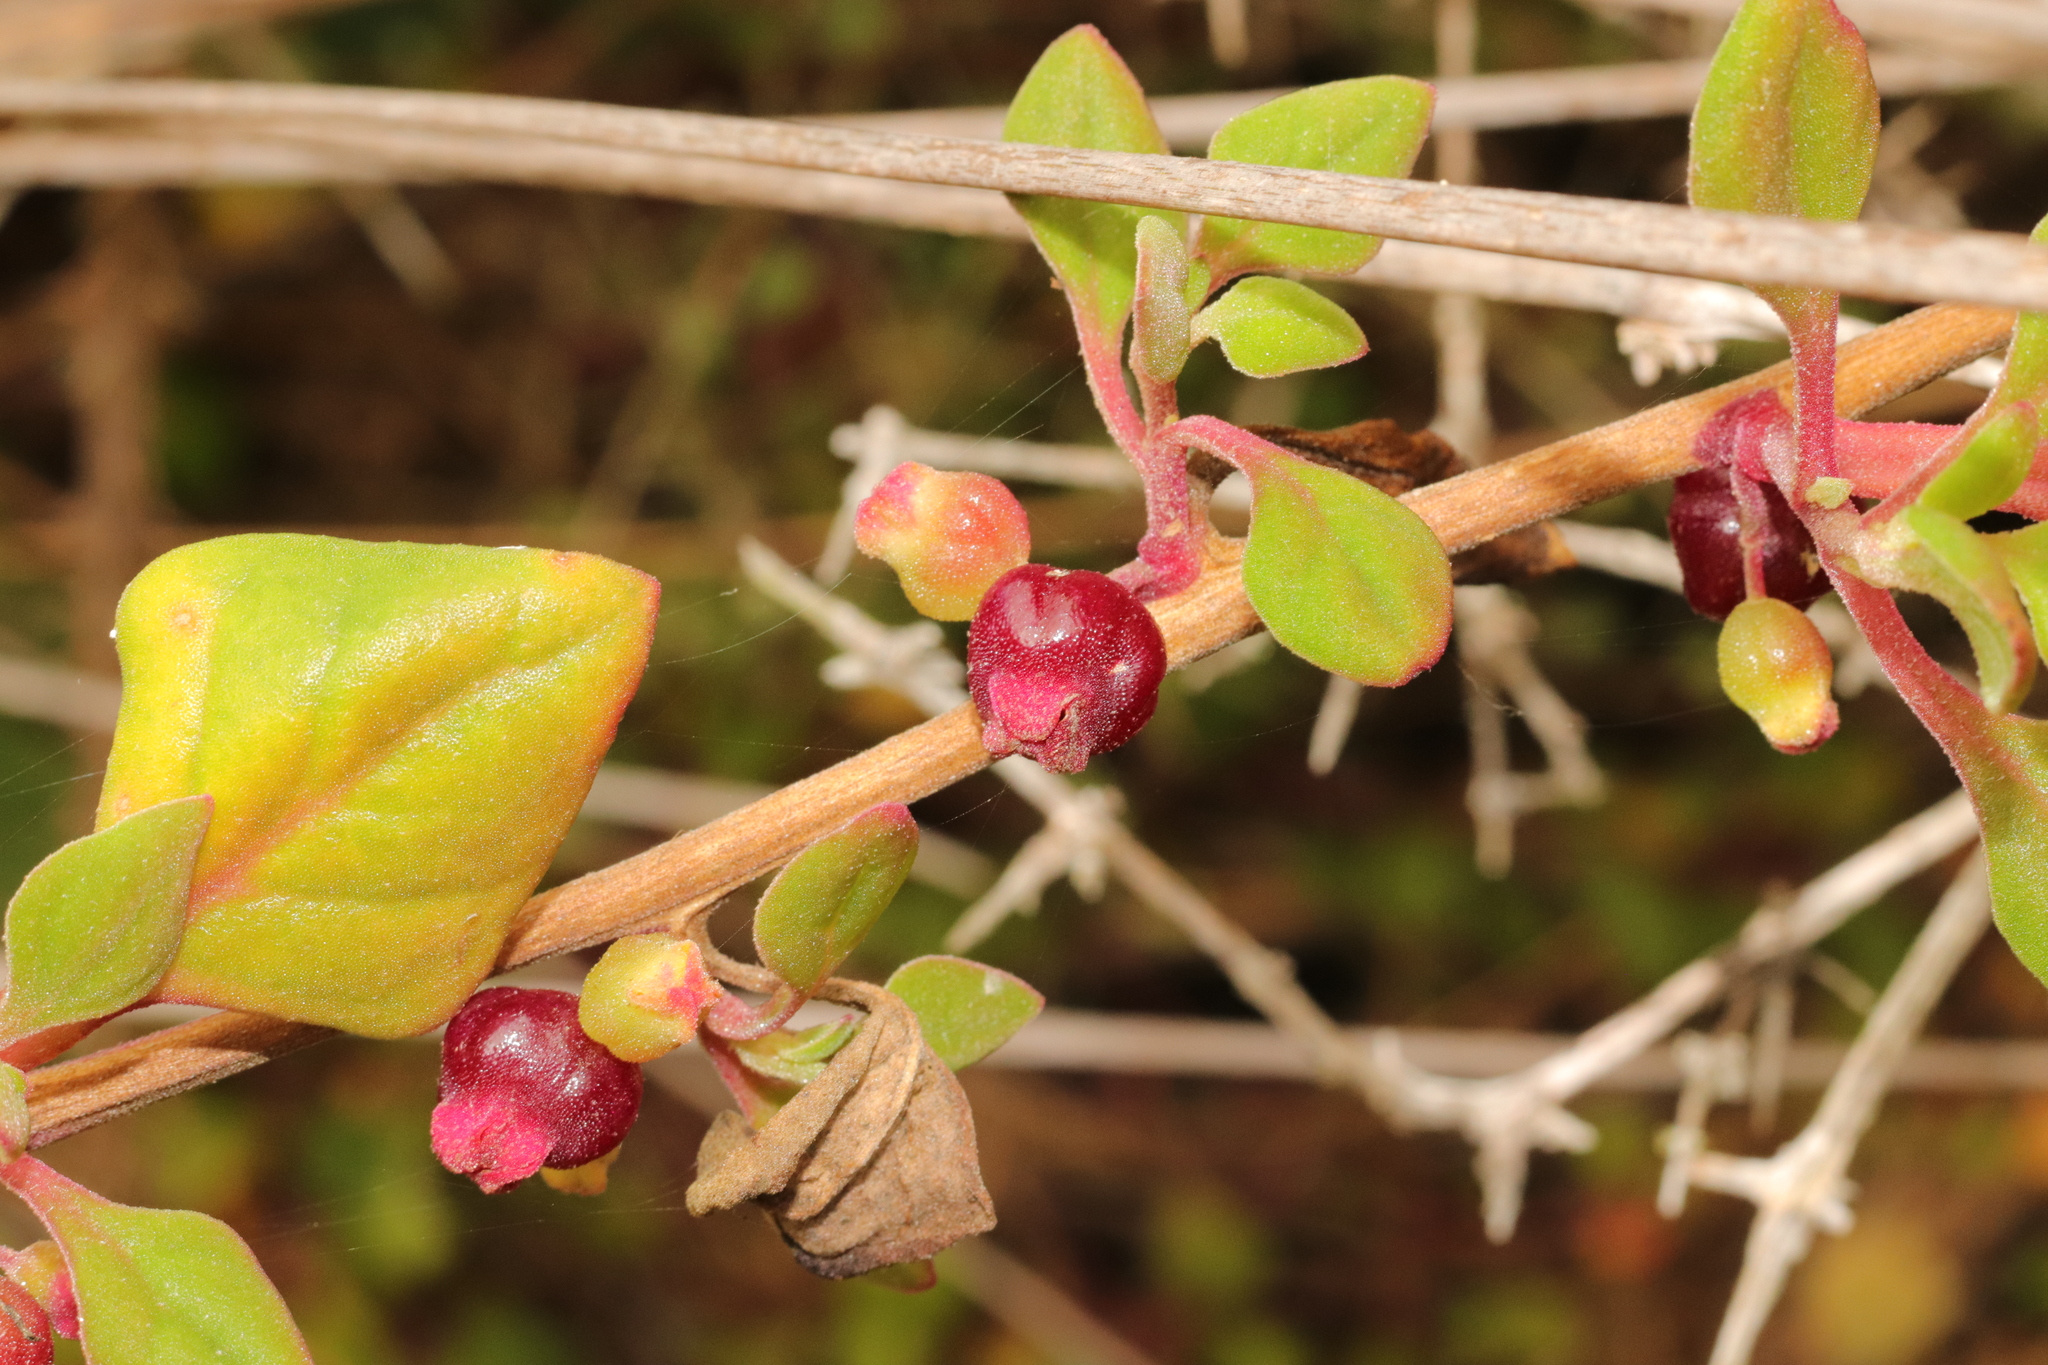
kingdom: Plantae
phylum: Tracheophyta
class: Magnoliopsida
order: Caryophyllales
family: Aizoaceae
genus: Tetragonia
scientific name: Tetragonia implexicoma
